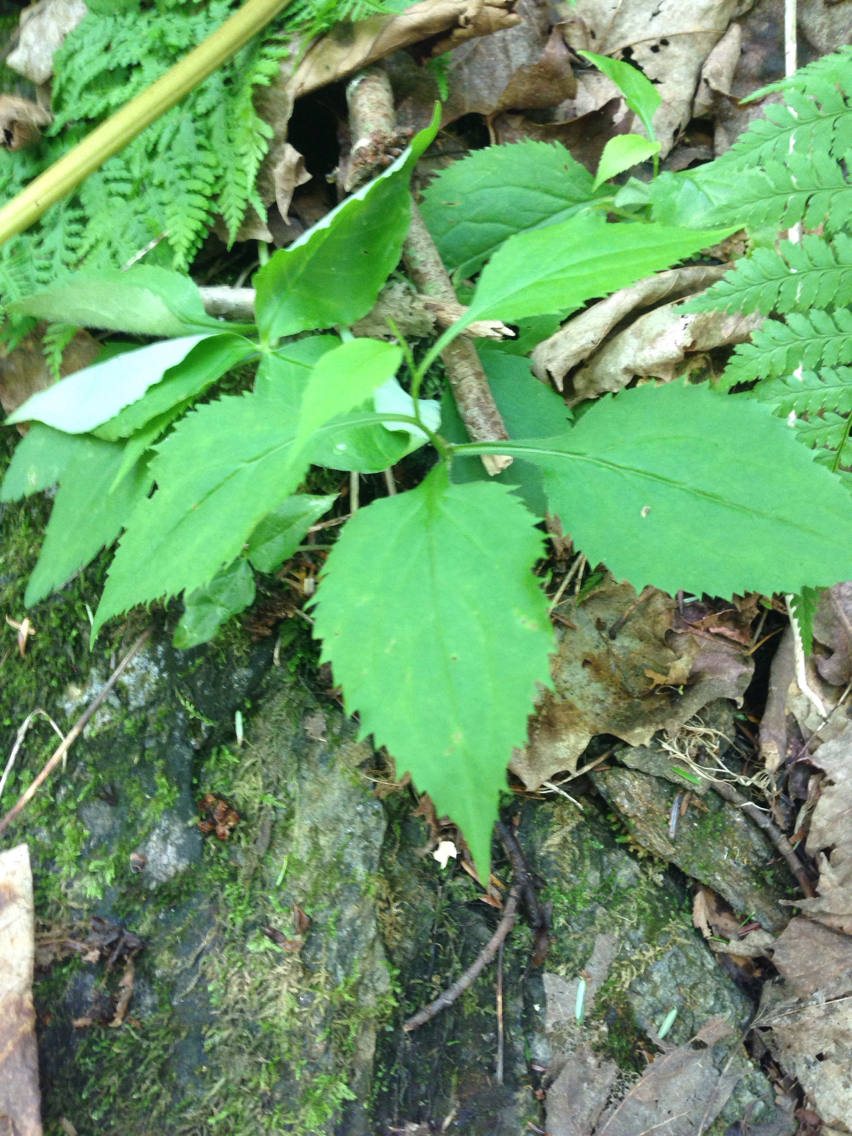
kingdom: Plantae
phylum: Tracheophyta
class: Magnoliopsida
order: Asterales
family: Asteraceae
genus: Solidago
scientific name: Solidago flexicaulis
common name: Zig-zag goldenrod
